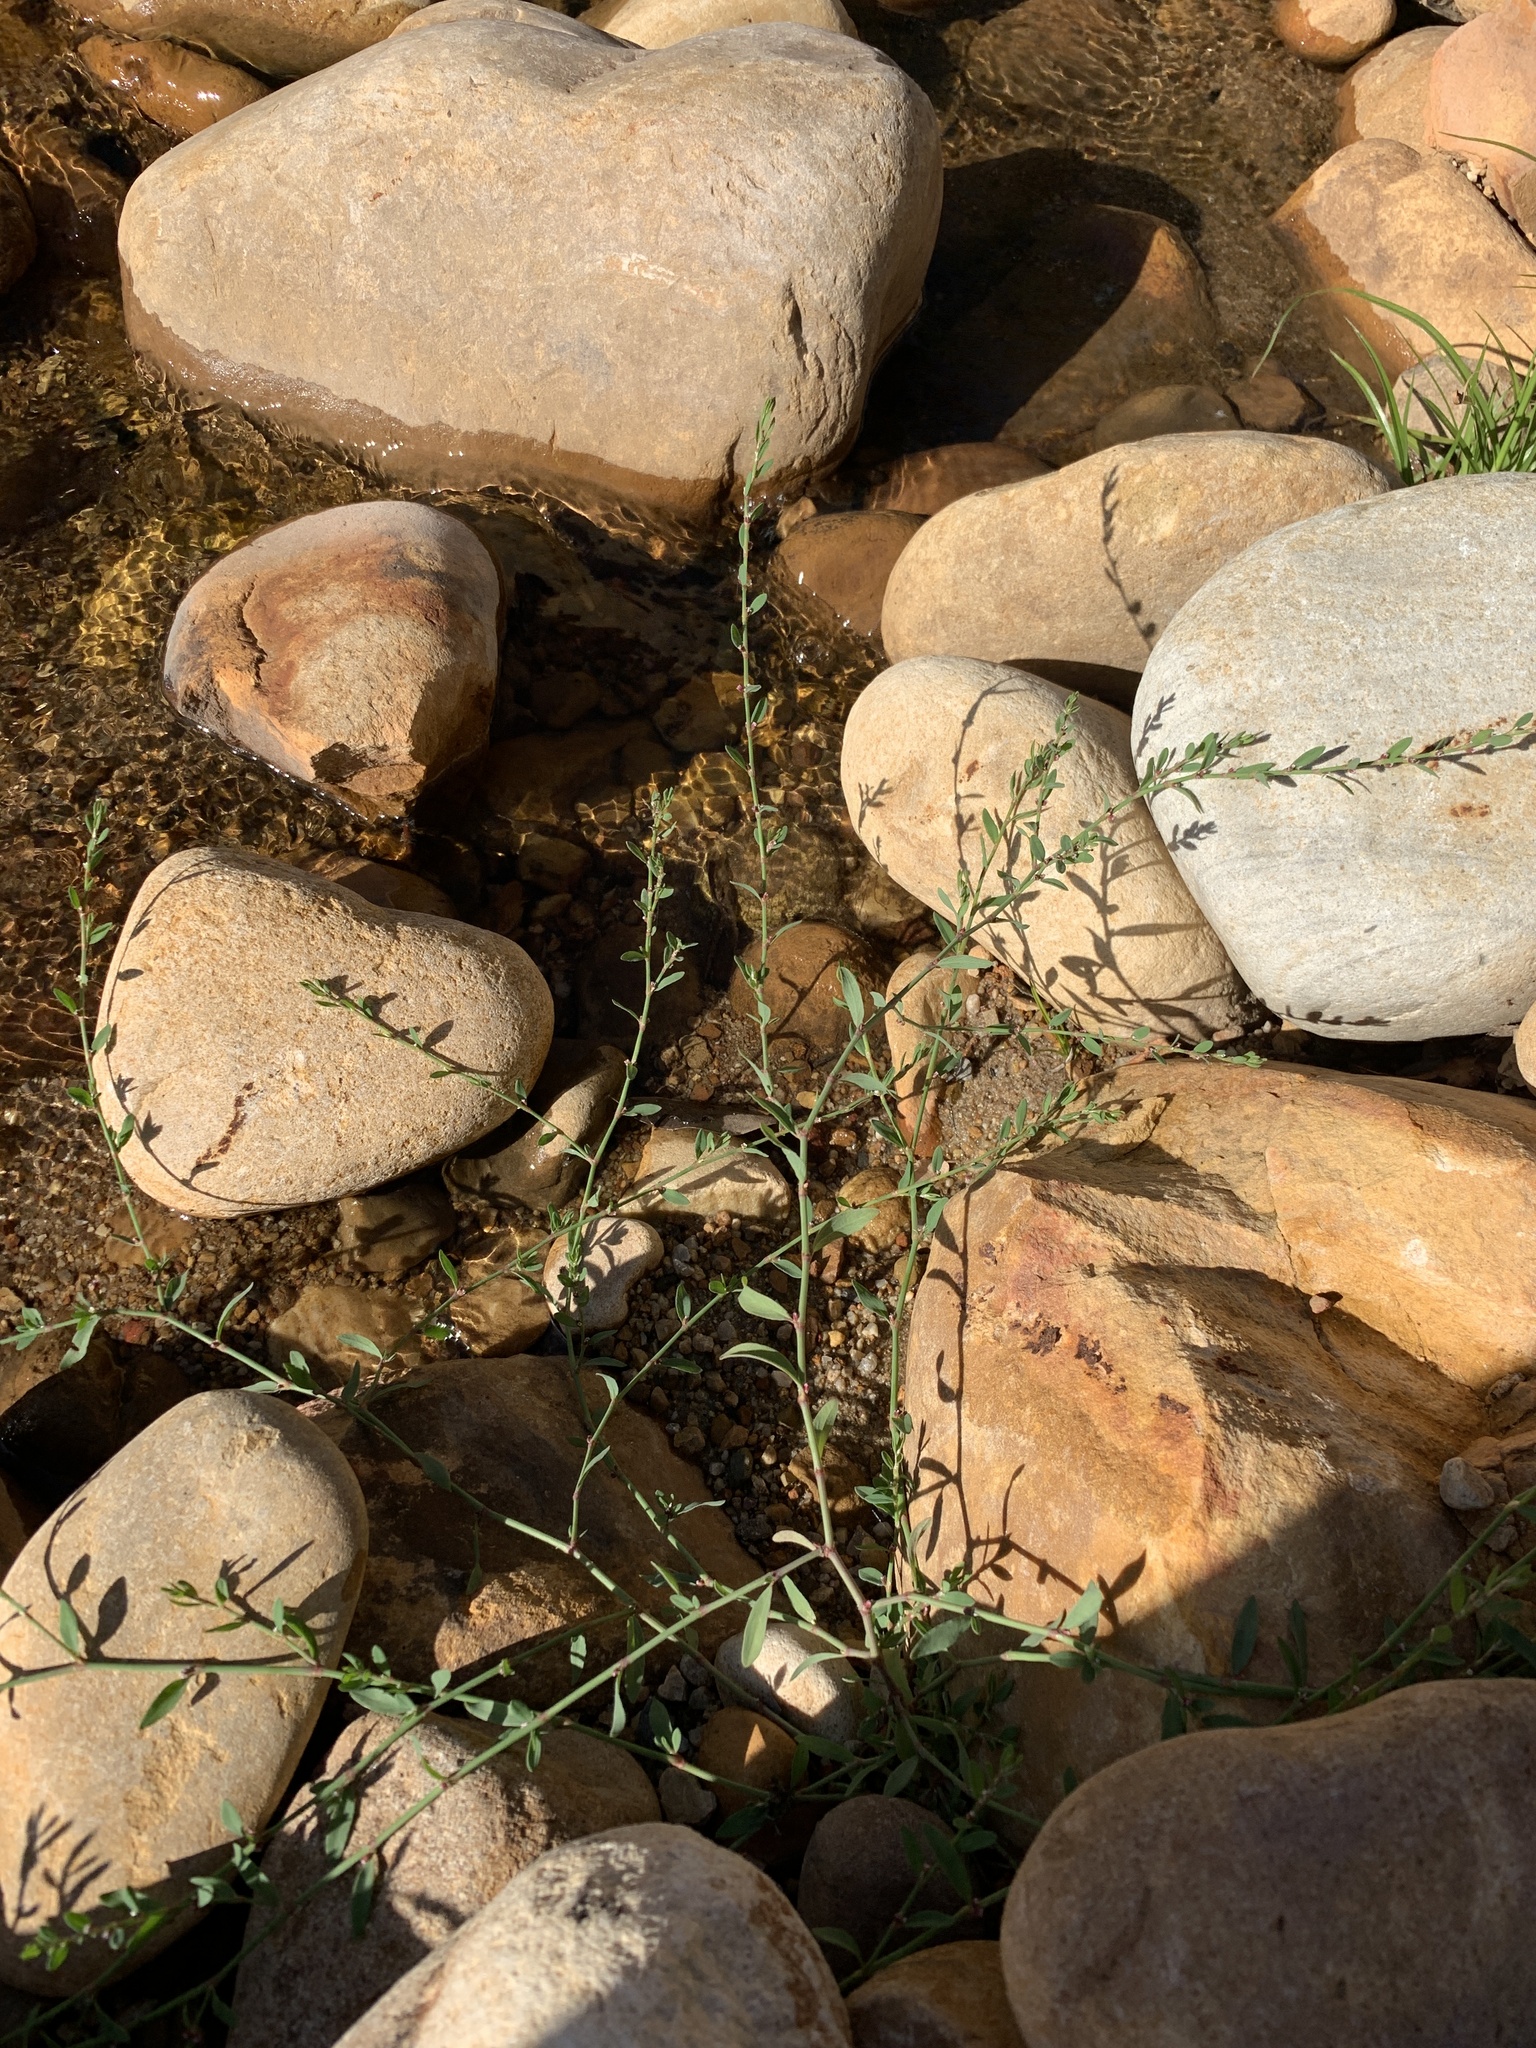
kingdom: Plantae
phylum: Tracheophyta
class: Magnoliopsida
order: Caryophyllales
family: Polygonaceae
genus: Polygonum
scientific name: Polygonum aviculare
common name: Prostrate knotweed
